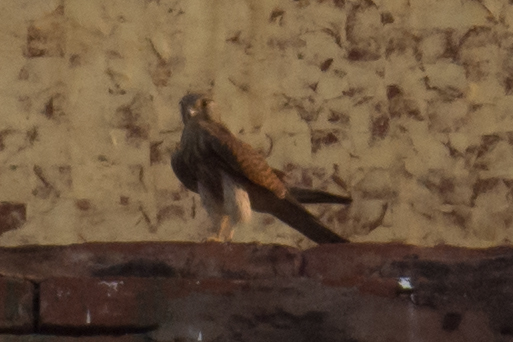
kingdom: Animalia
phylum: Chordata
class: Aves
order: Falconiformes
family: Falconidae
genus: Falco
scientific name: Falco tinnunculus
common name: Common kestrel
